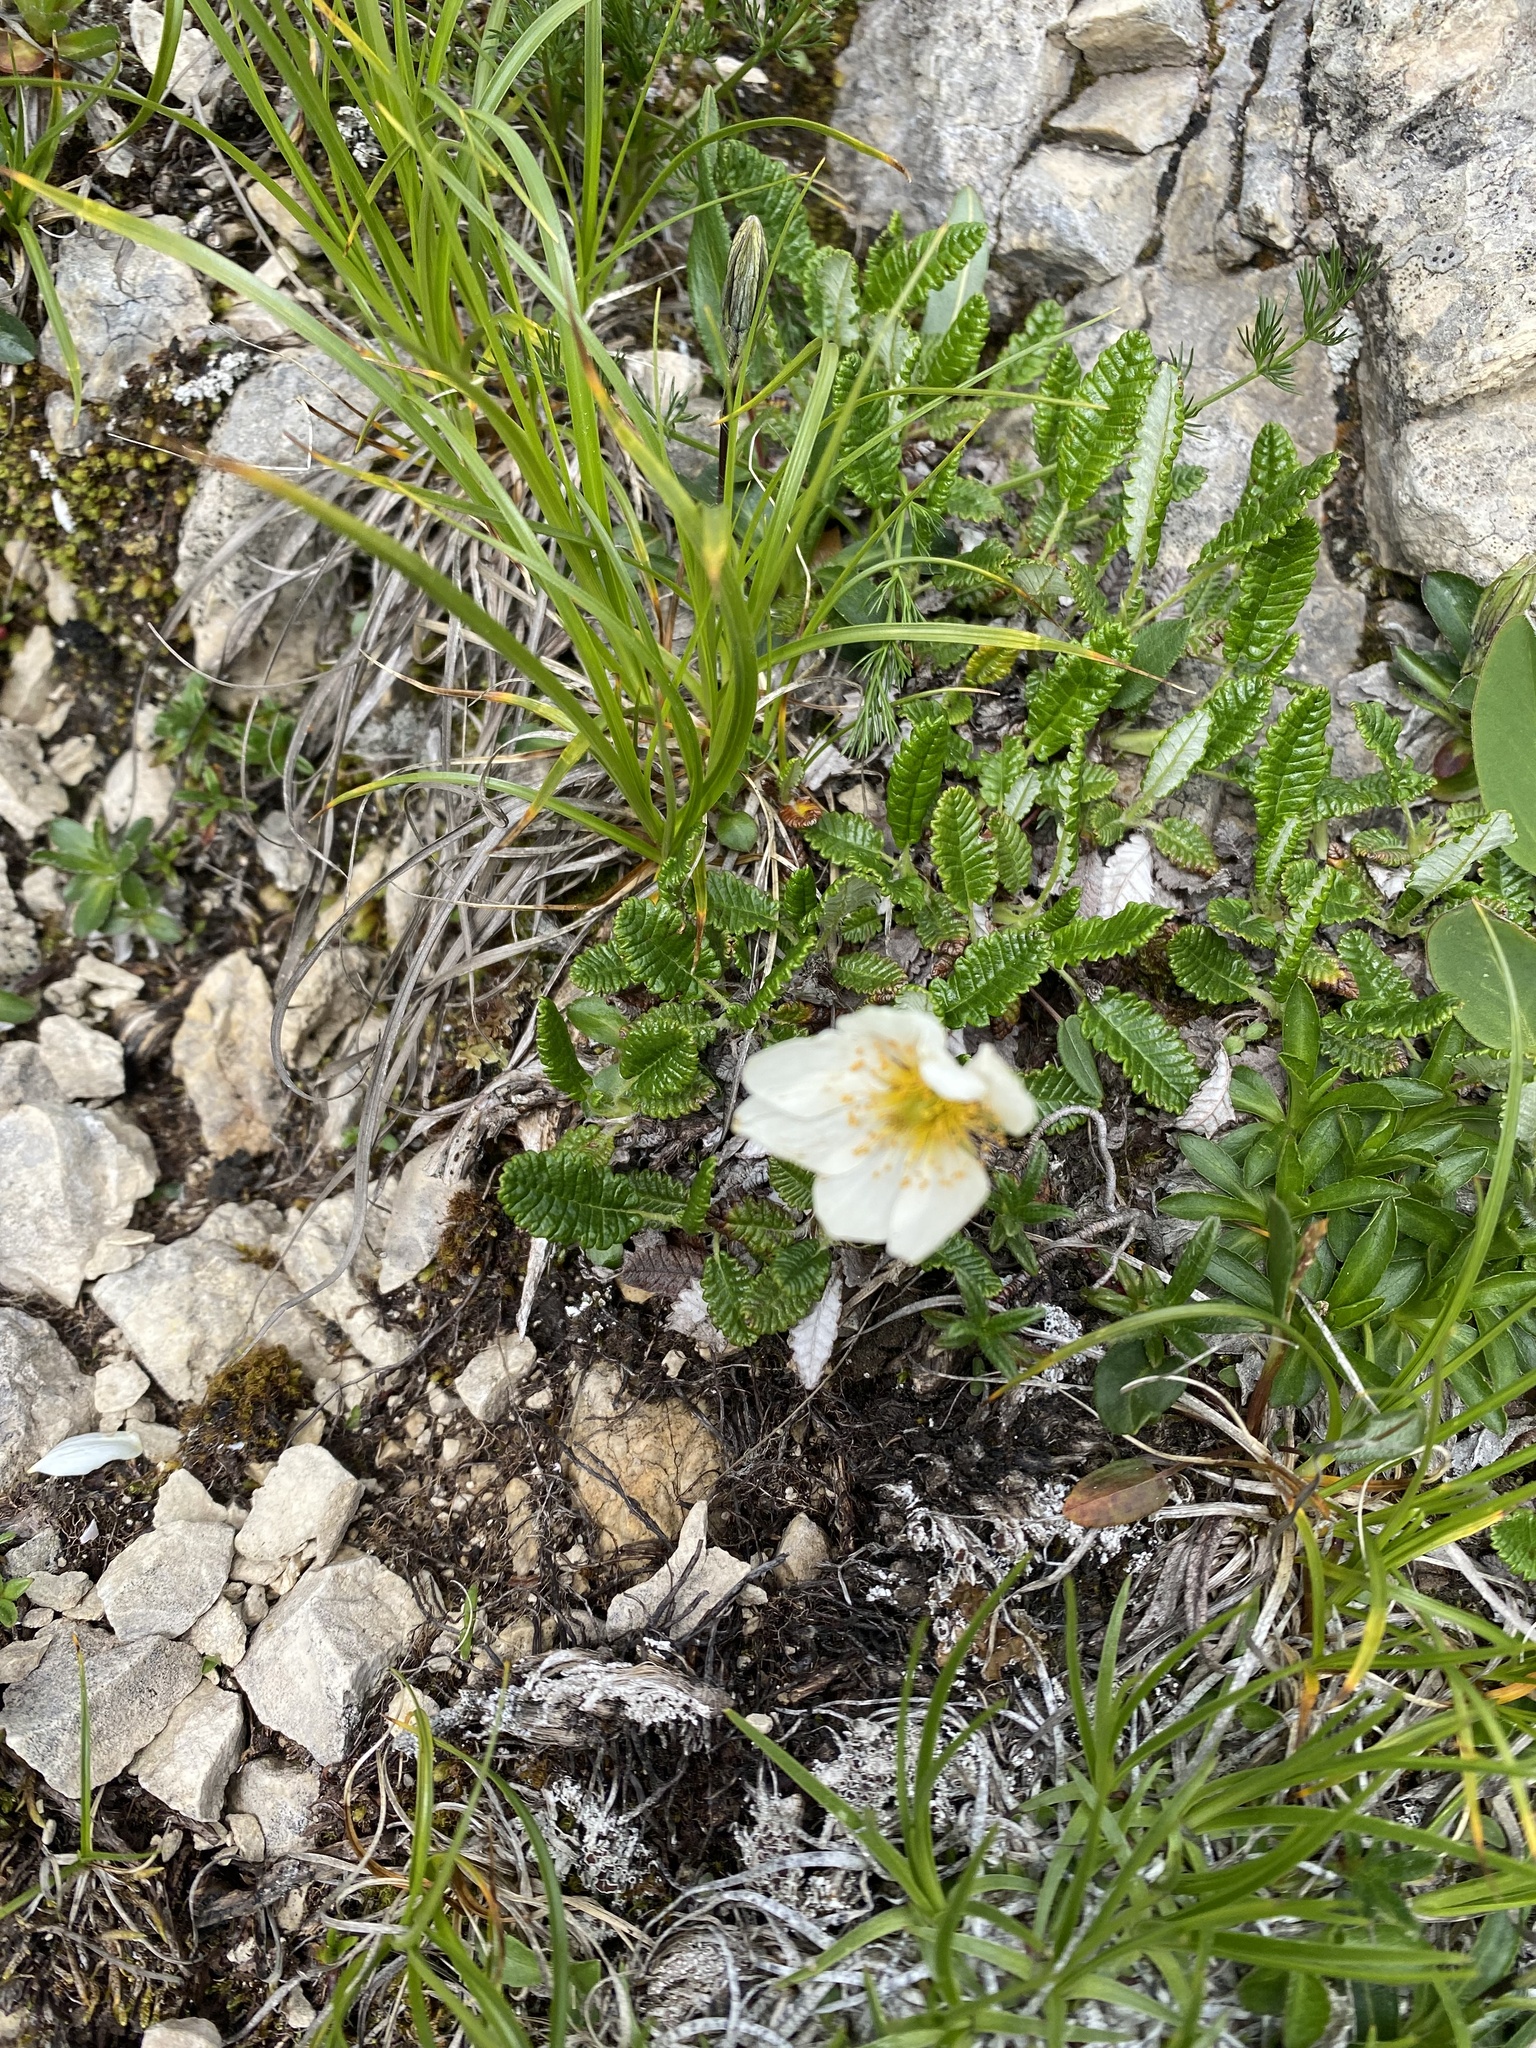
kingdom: Plantae
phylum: Tracheophyta
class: Magnoliopsida
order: Rosales
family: Rosaceae
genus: Dryas
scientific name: Dryas octopetala
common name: Eight-petal mountain-avens
